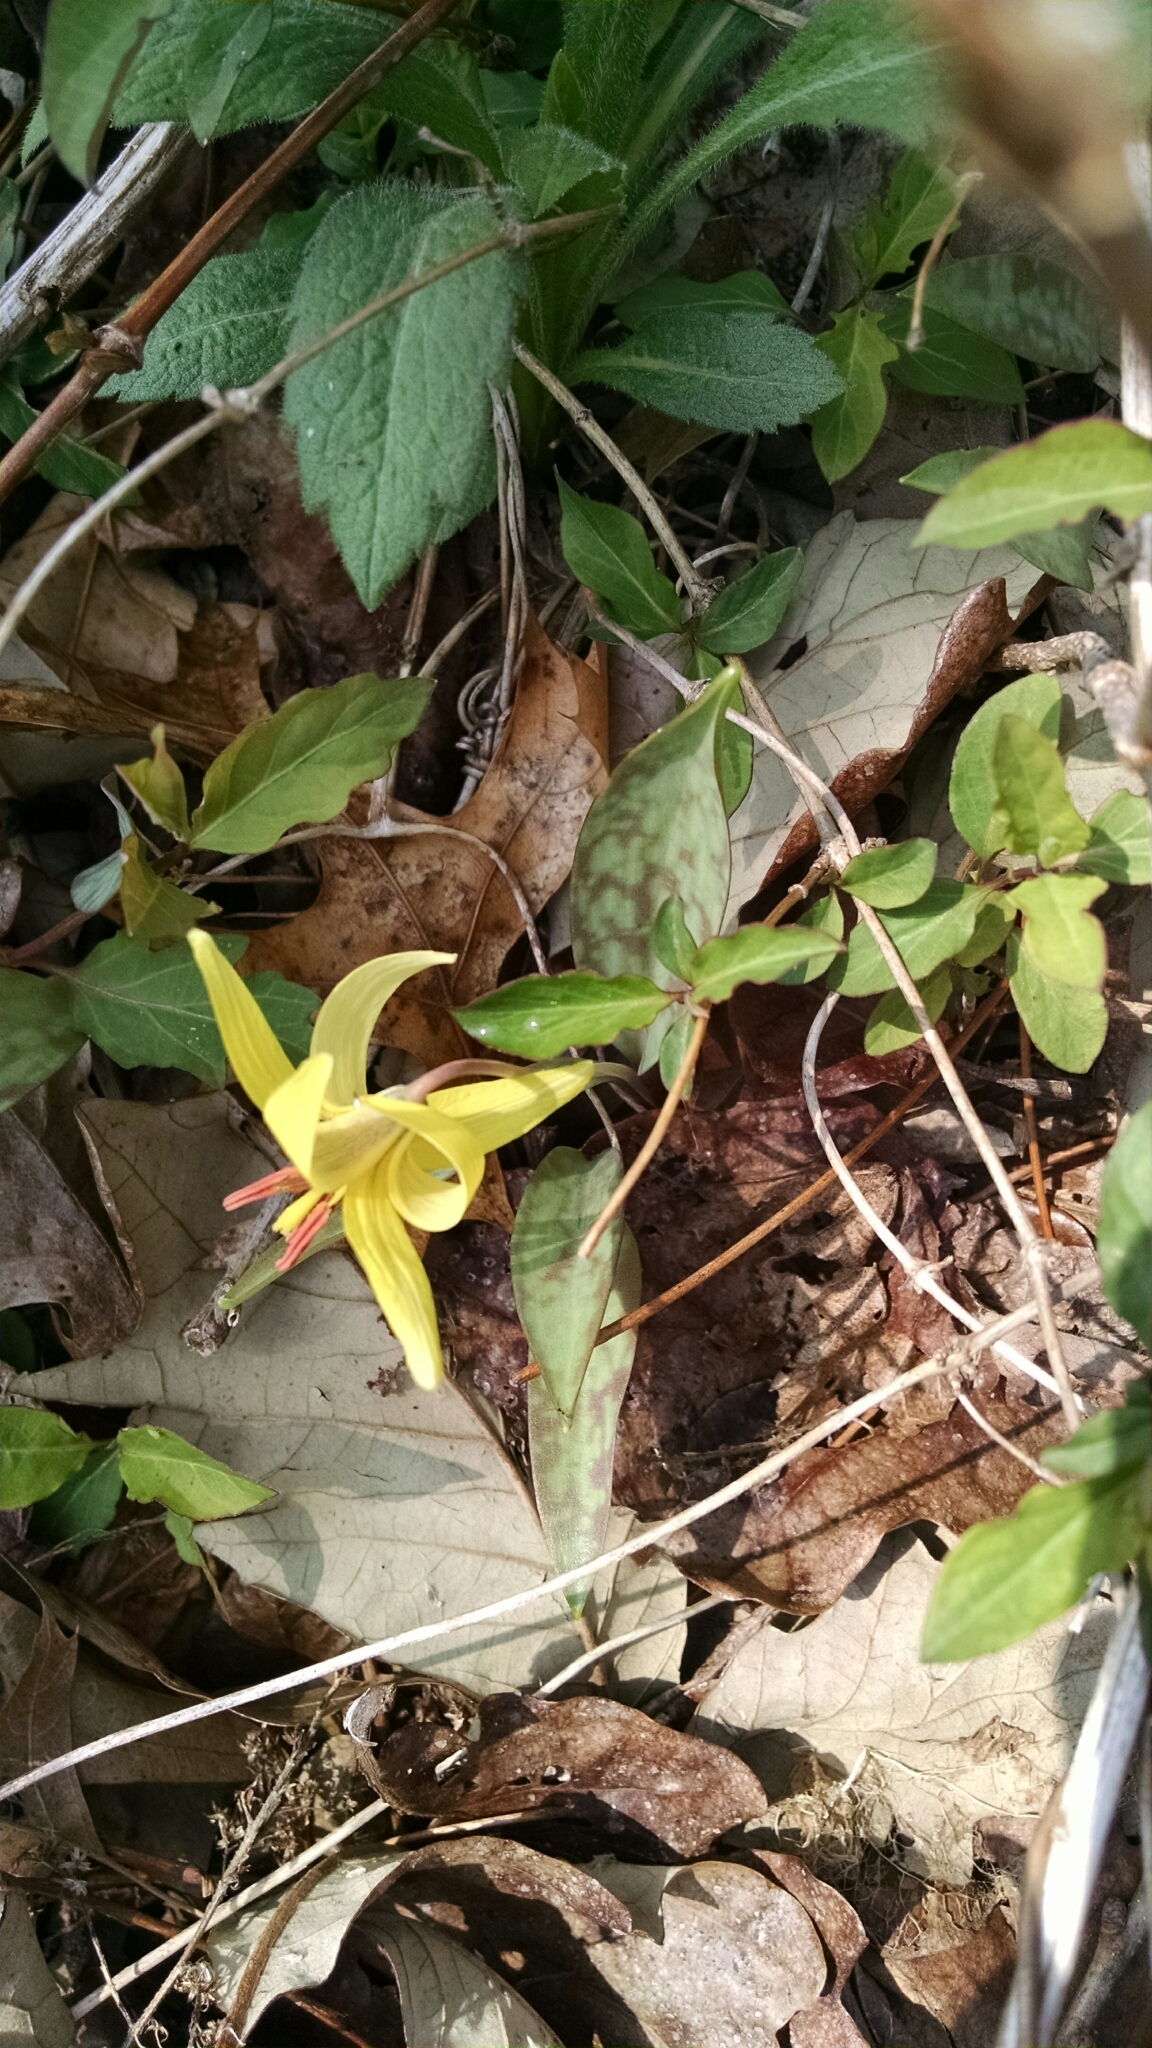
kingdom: Plantae
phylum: Tracheophyta
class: Liliopsida
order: Liliales
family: Liliaceae
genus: Erythronium
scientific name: Erythronium americanum
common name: Yellow adder's-tongue
